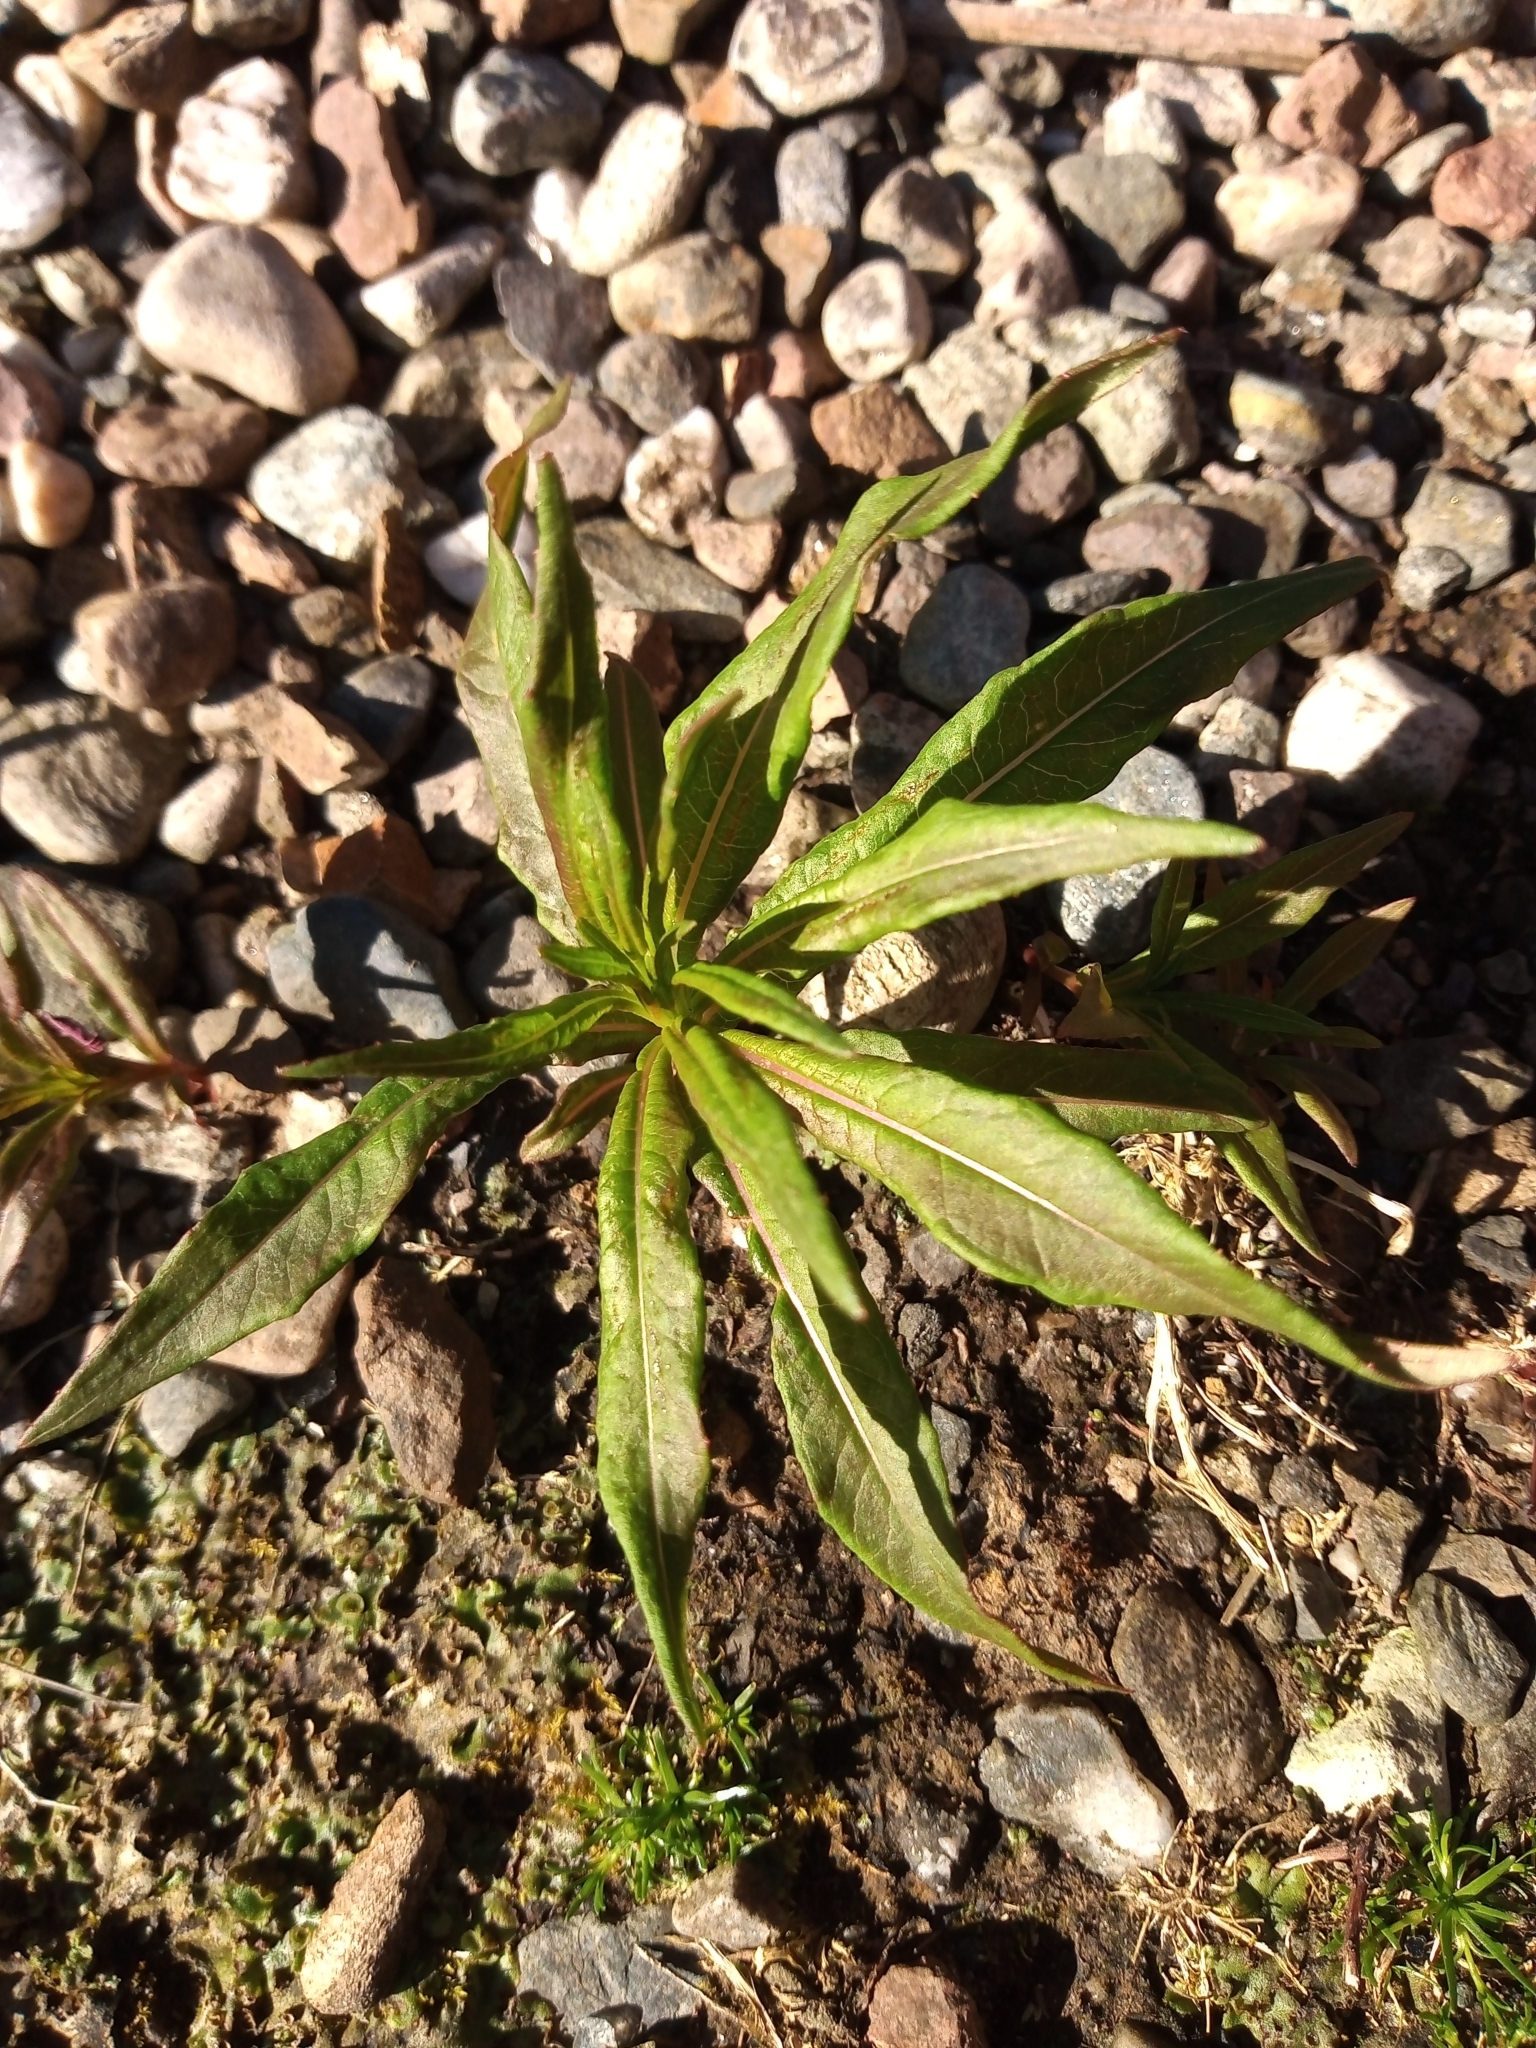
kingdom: Plantae
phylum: Tracheophyta
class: Magnoliopsida
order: Myrtales
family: Onagraceae
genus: Chamaenerion
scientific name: Chamaenerion angustifolium
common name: Fireweed
